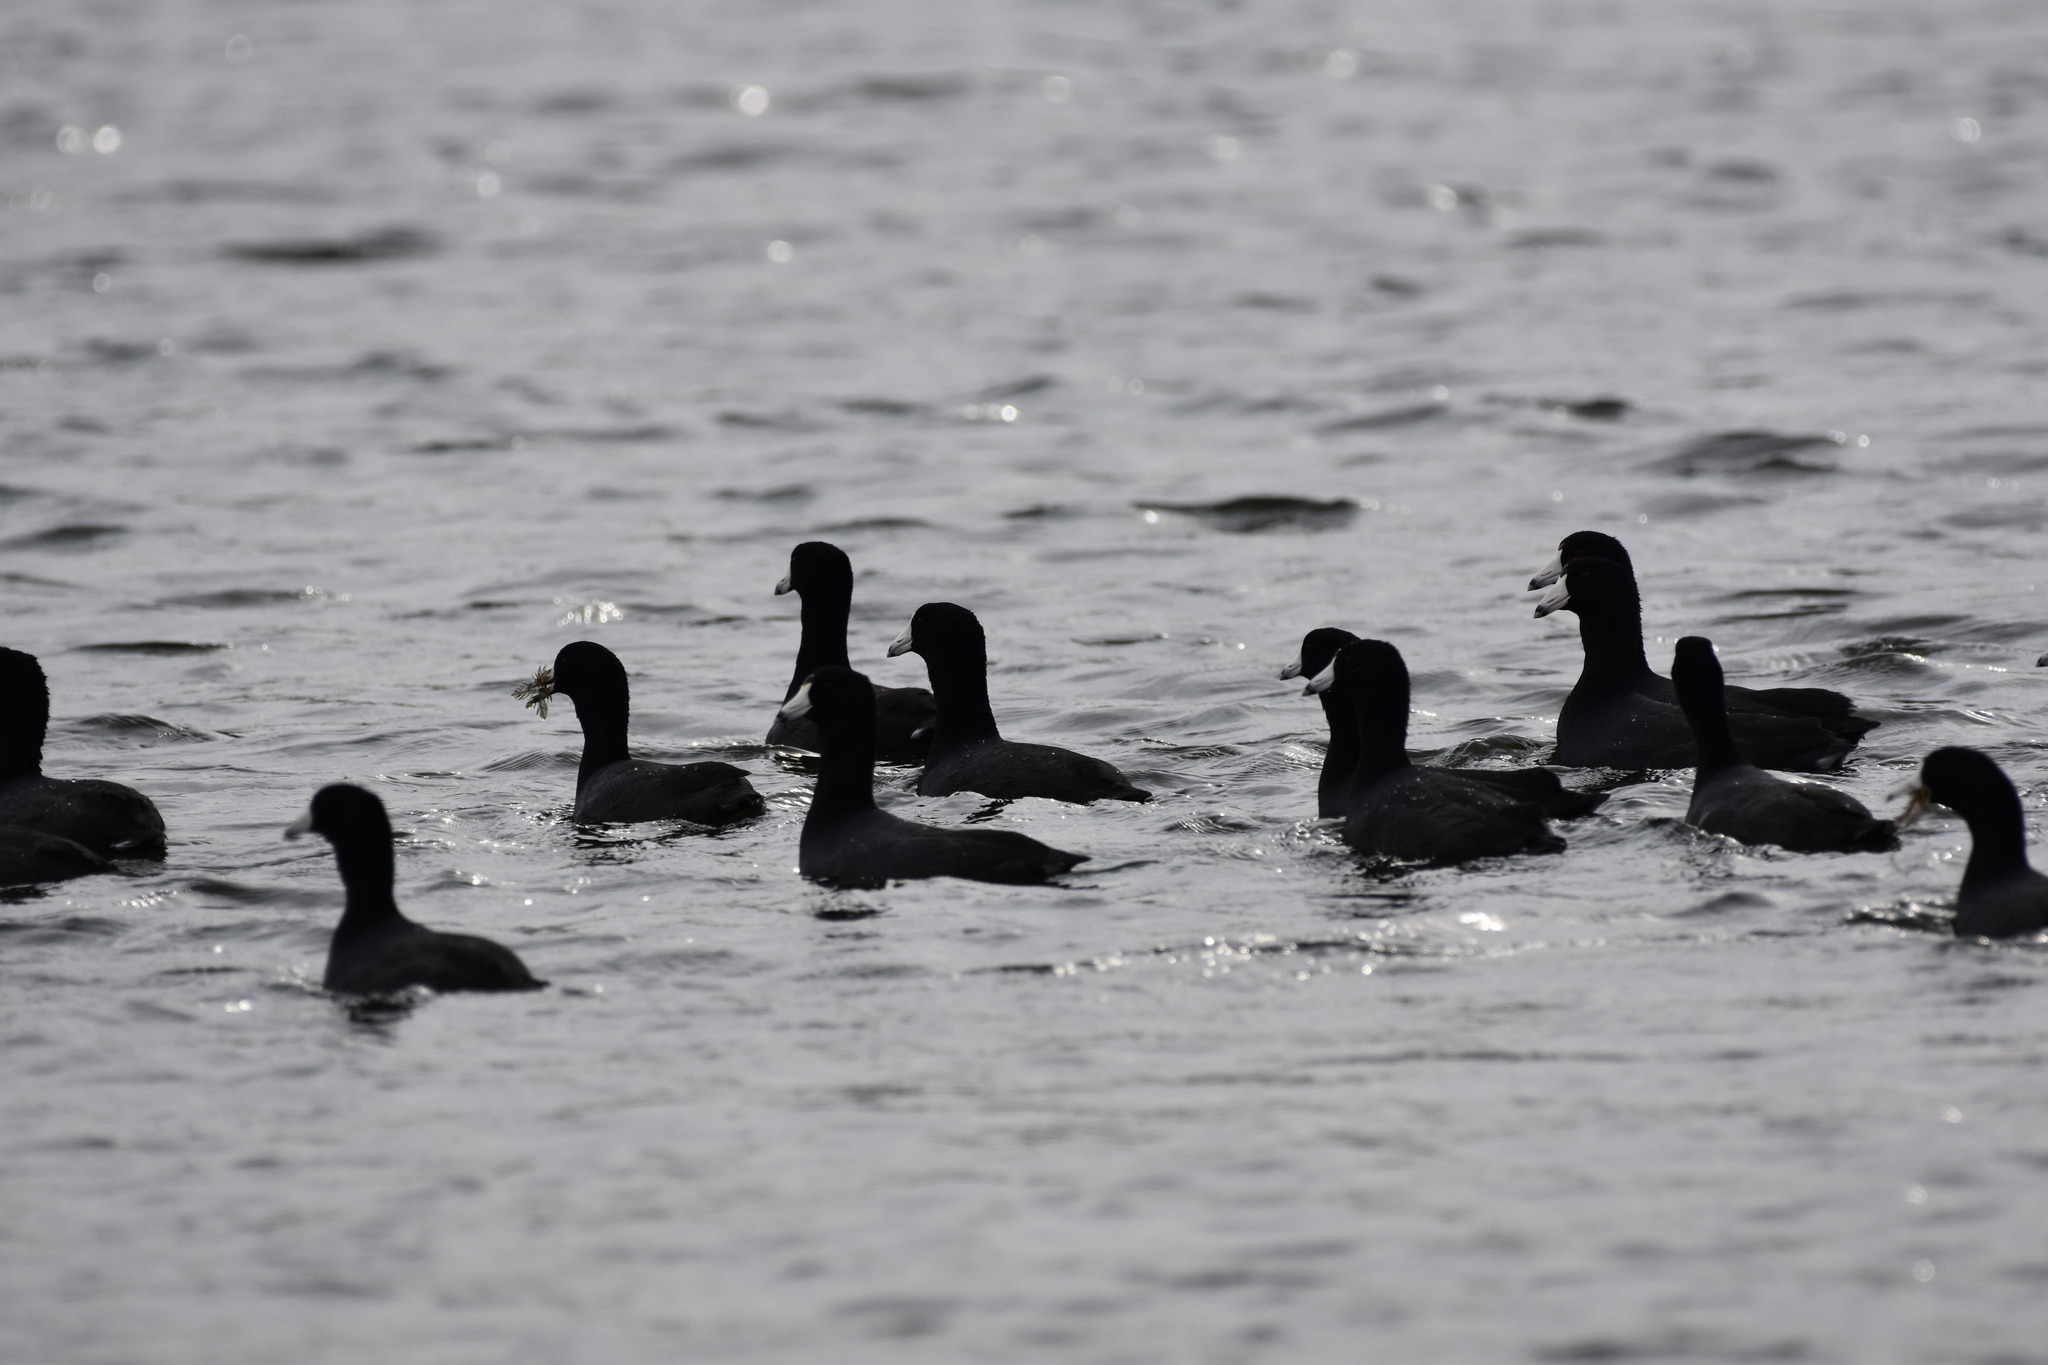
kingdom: Animalia
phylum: Chordata
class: Aves
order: Gruiformes
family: Rallidae
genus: Fulica
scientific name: Fulica americana
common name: American coot
